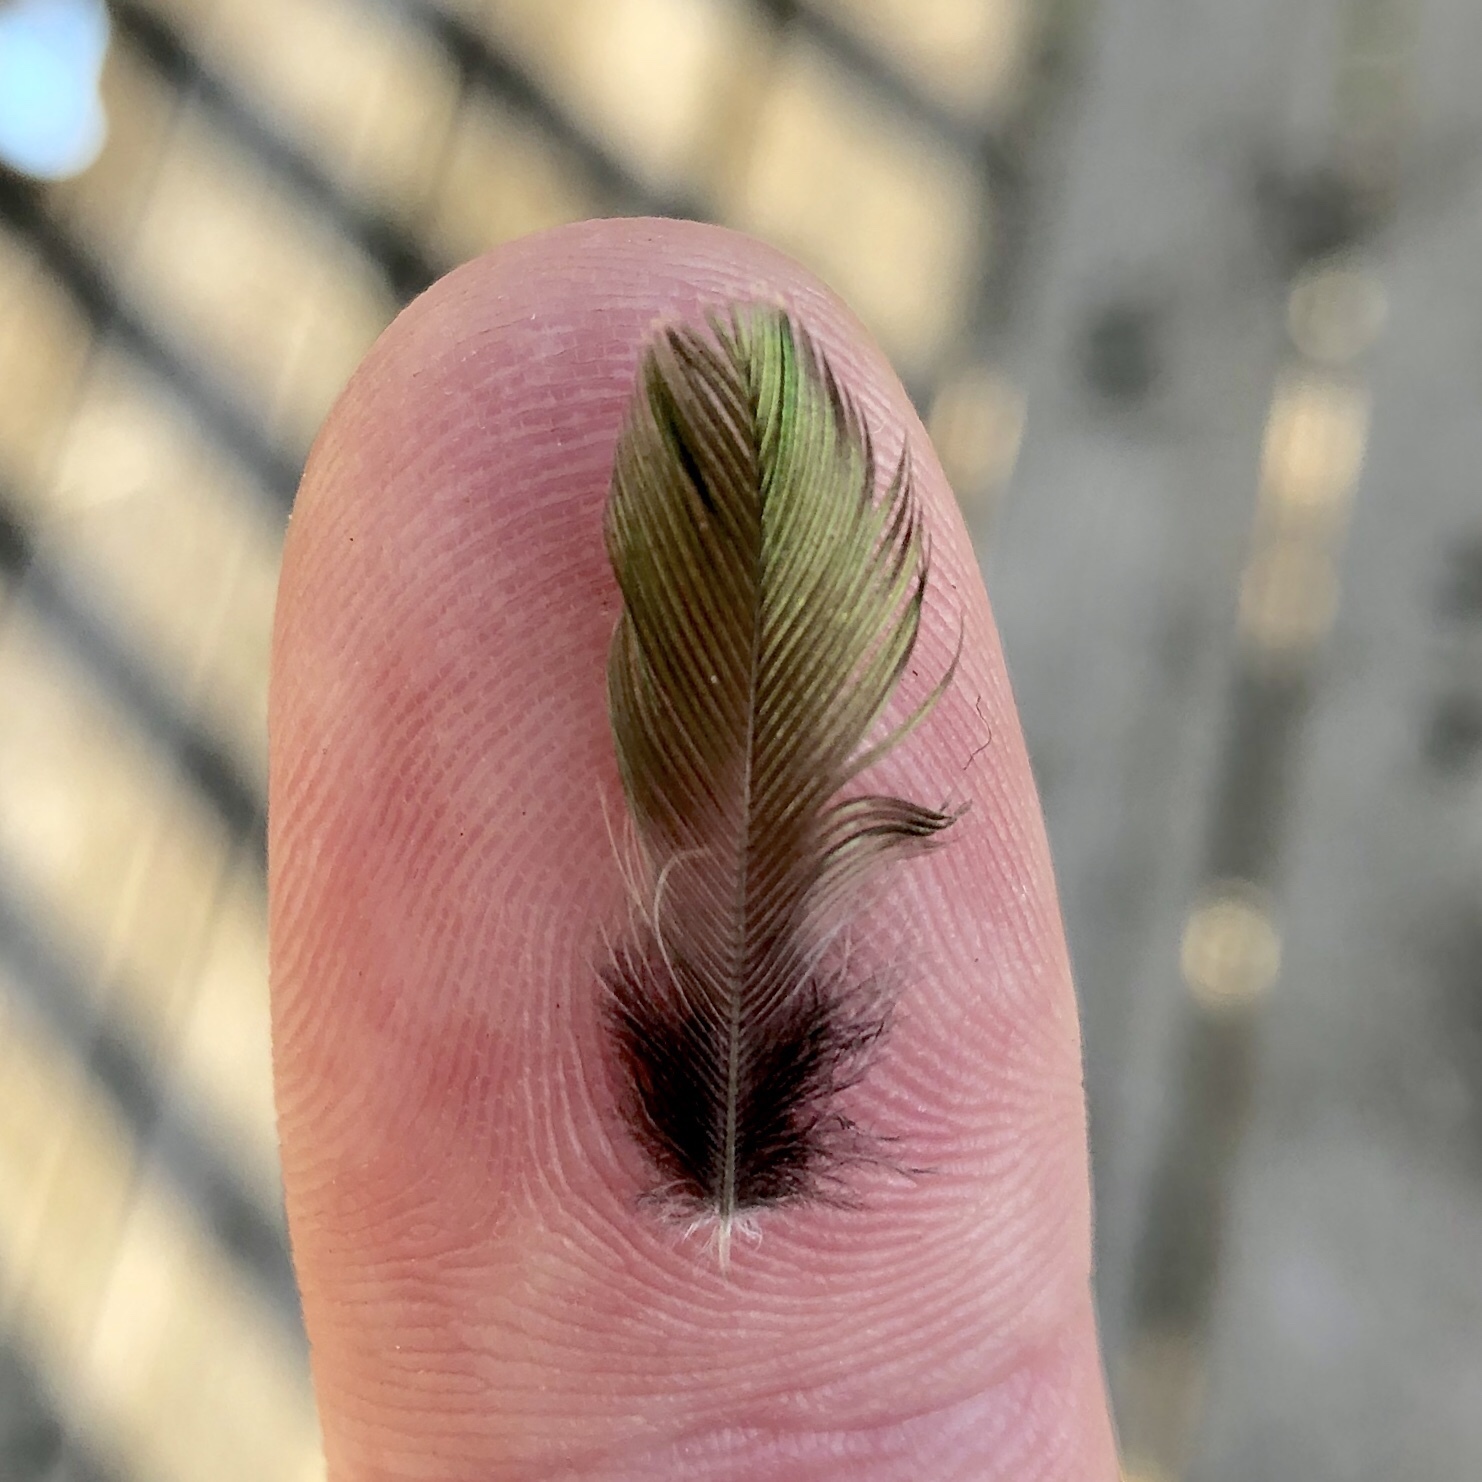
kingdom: Animalia
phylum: Chordata
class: Aves
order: Apodiformes
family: Trochilidae
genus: Archilochus
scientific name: Archilochus colubris
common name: Ruby-throated hummingbird
